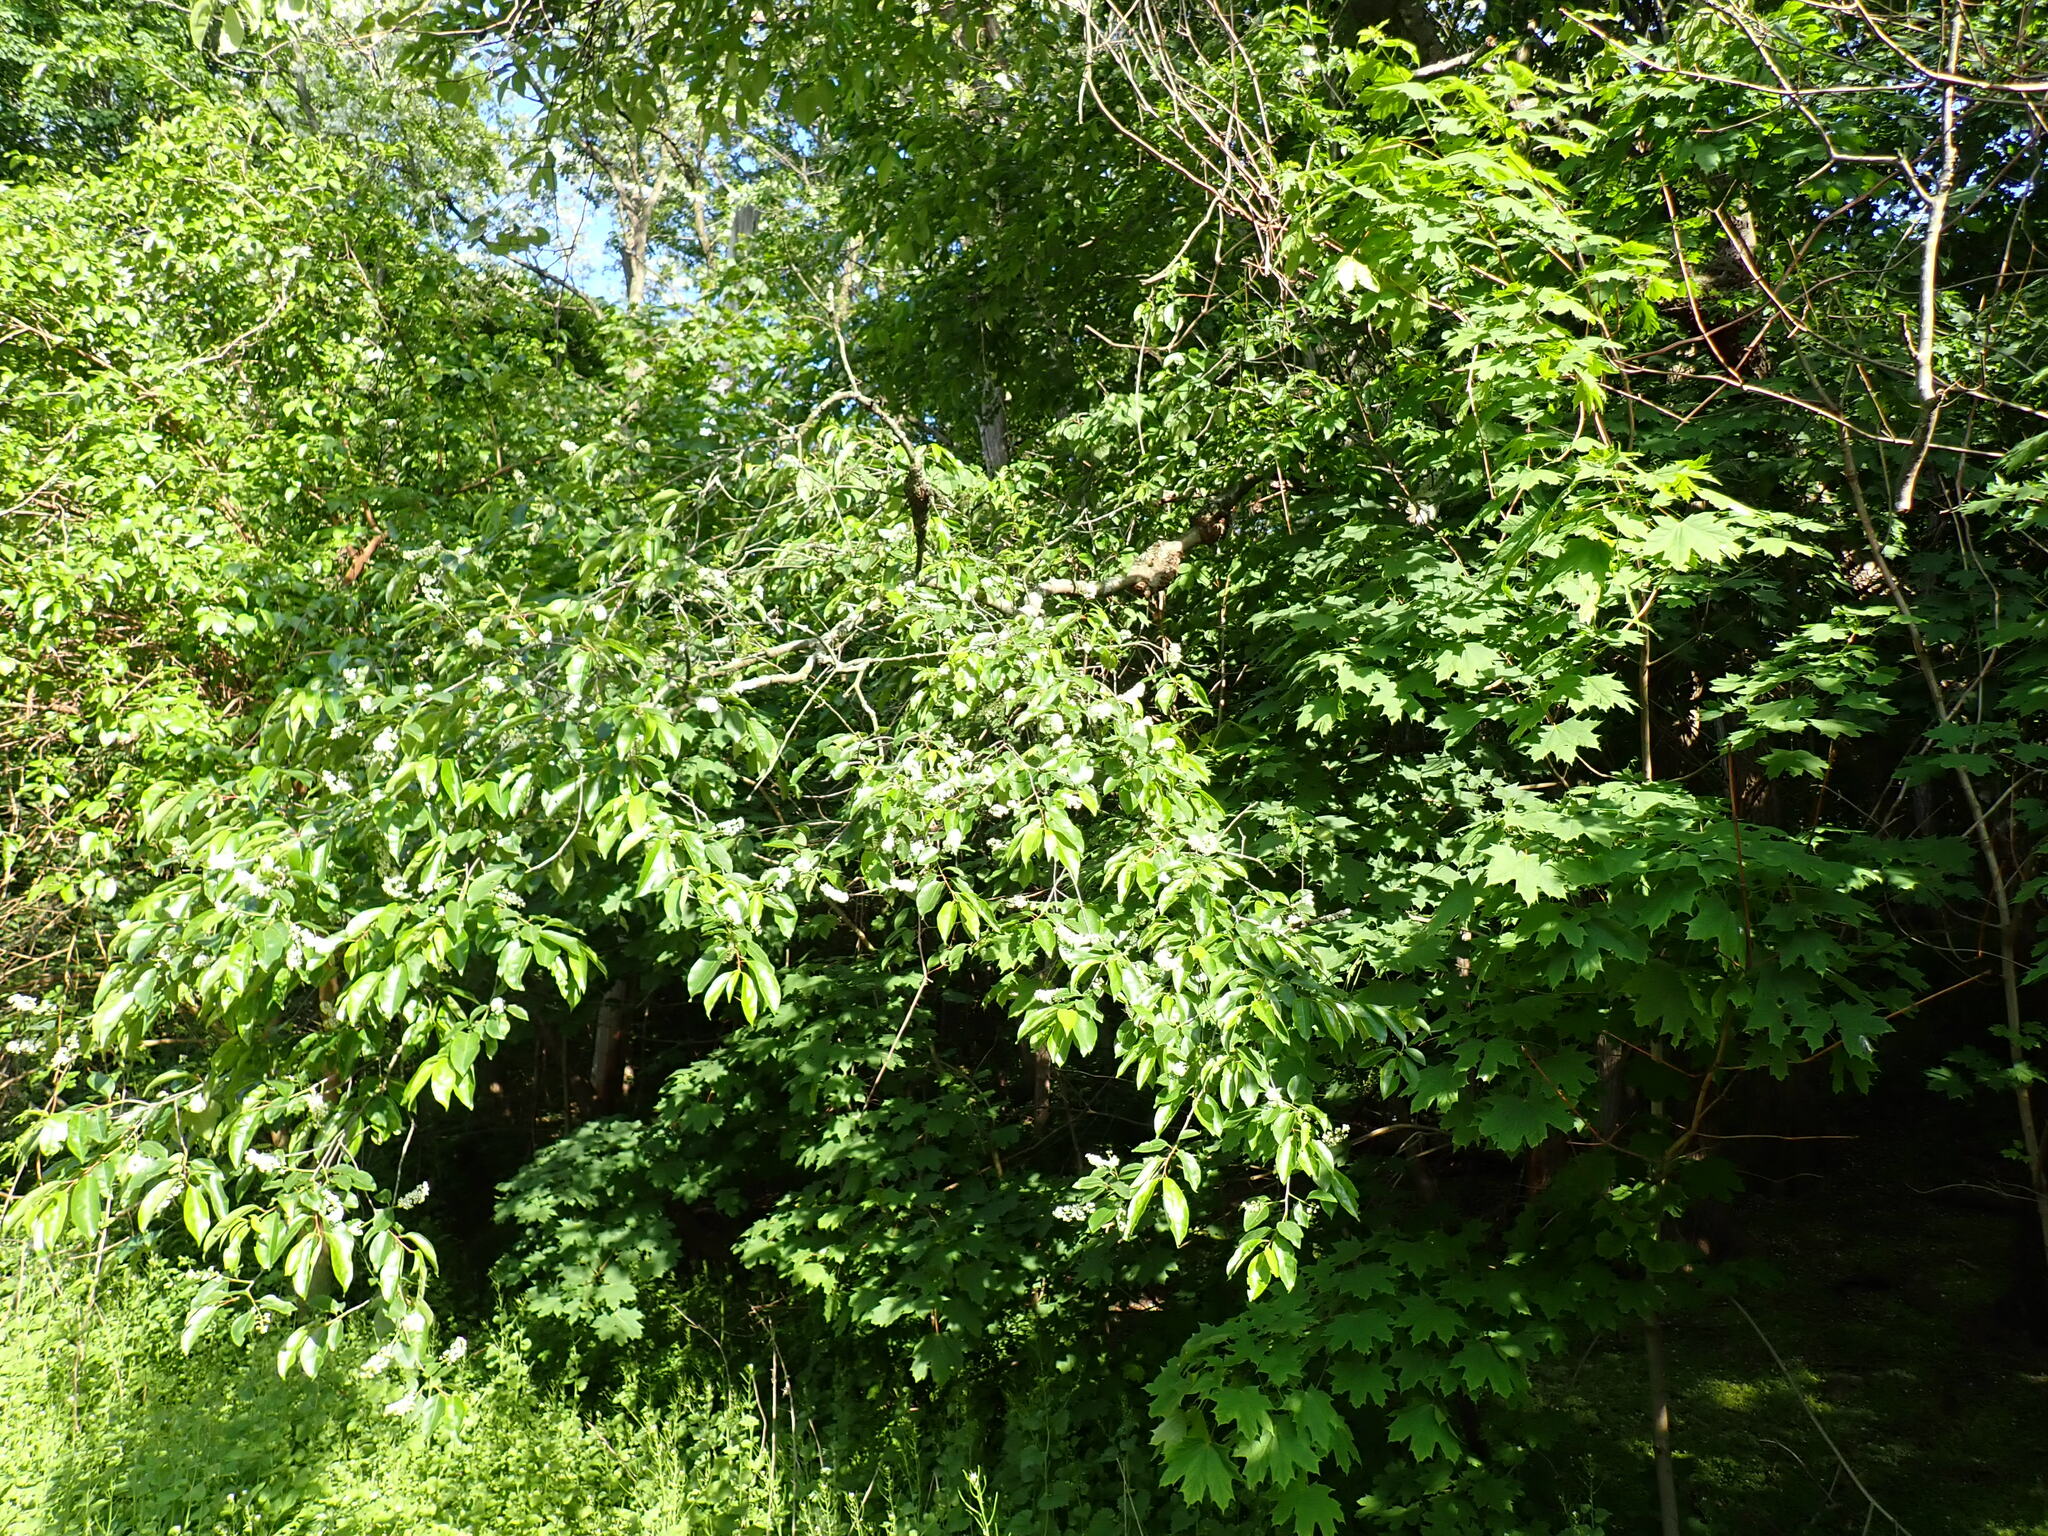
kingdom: Plantae
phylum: Tracheophyta
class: Magnoliopsida
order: Rosales
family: Rosaceae
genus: Prunus
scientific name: Prunus serotina
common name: Black cherry
